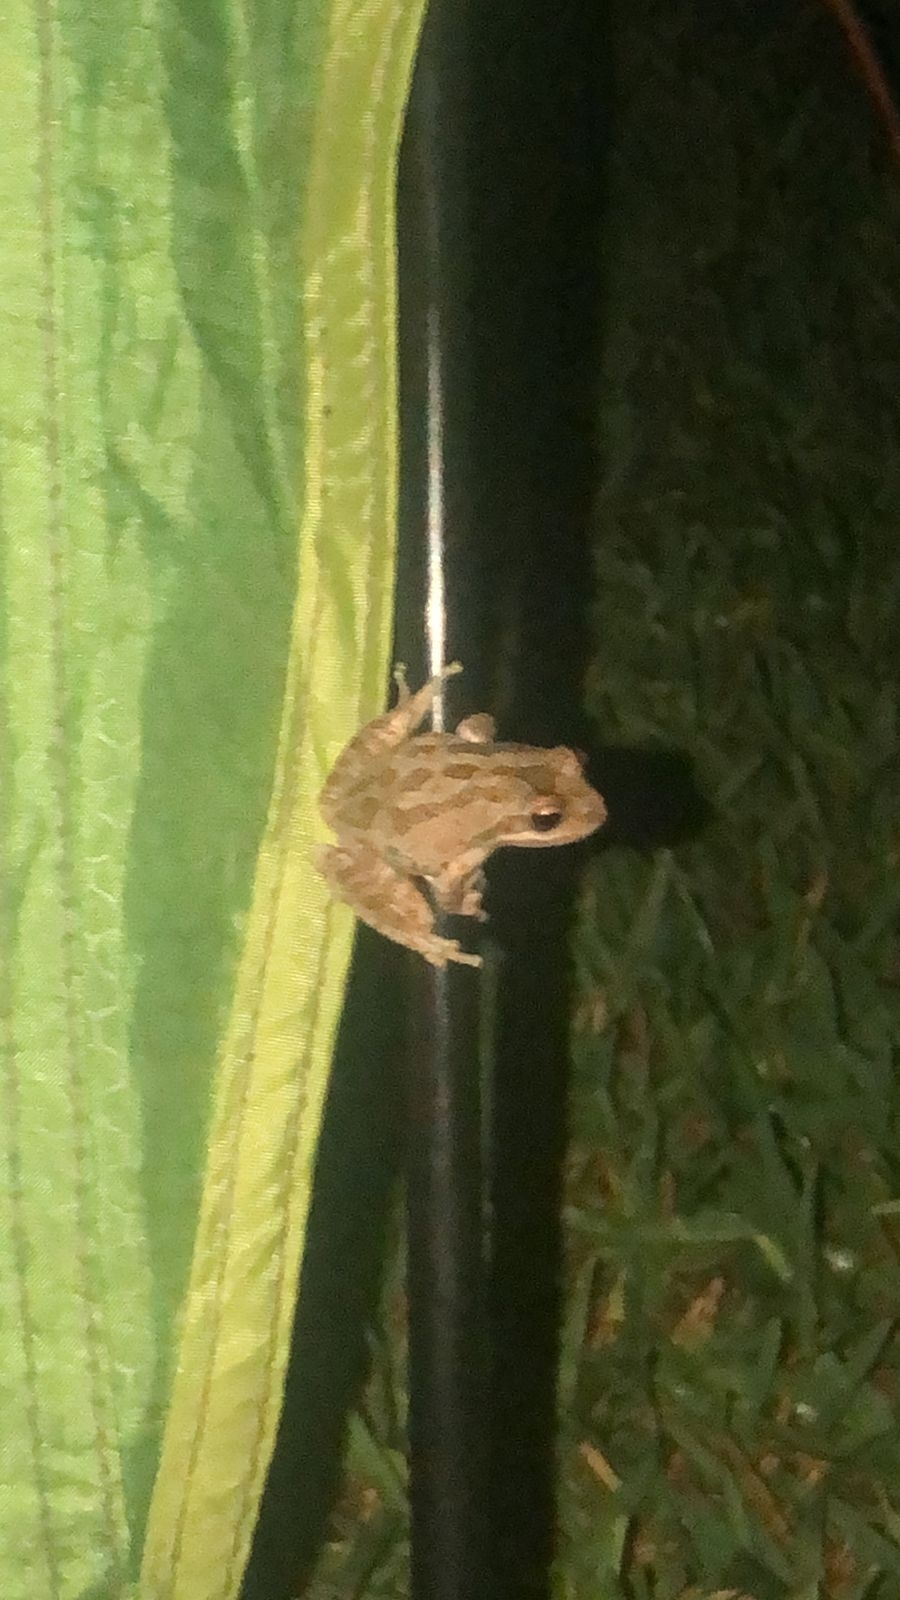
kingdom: Animalia
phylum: Chordata
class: Amphibia
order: Anura
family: Hylidae
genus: Pseudacris
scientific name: Pseudacris regilla
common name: Pacific chorus frog
